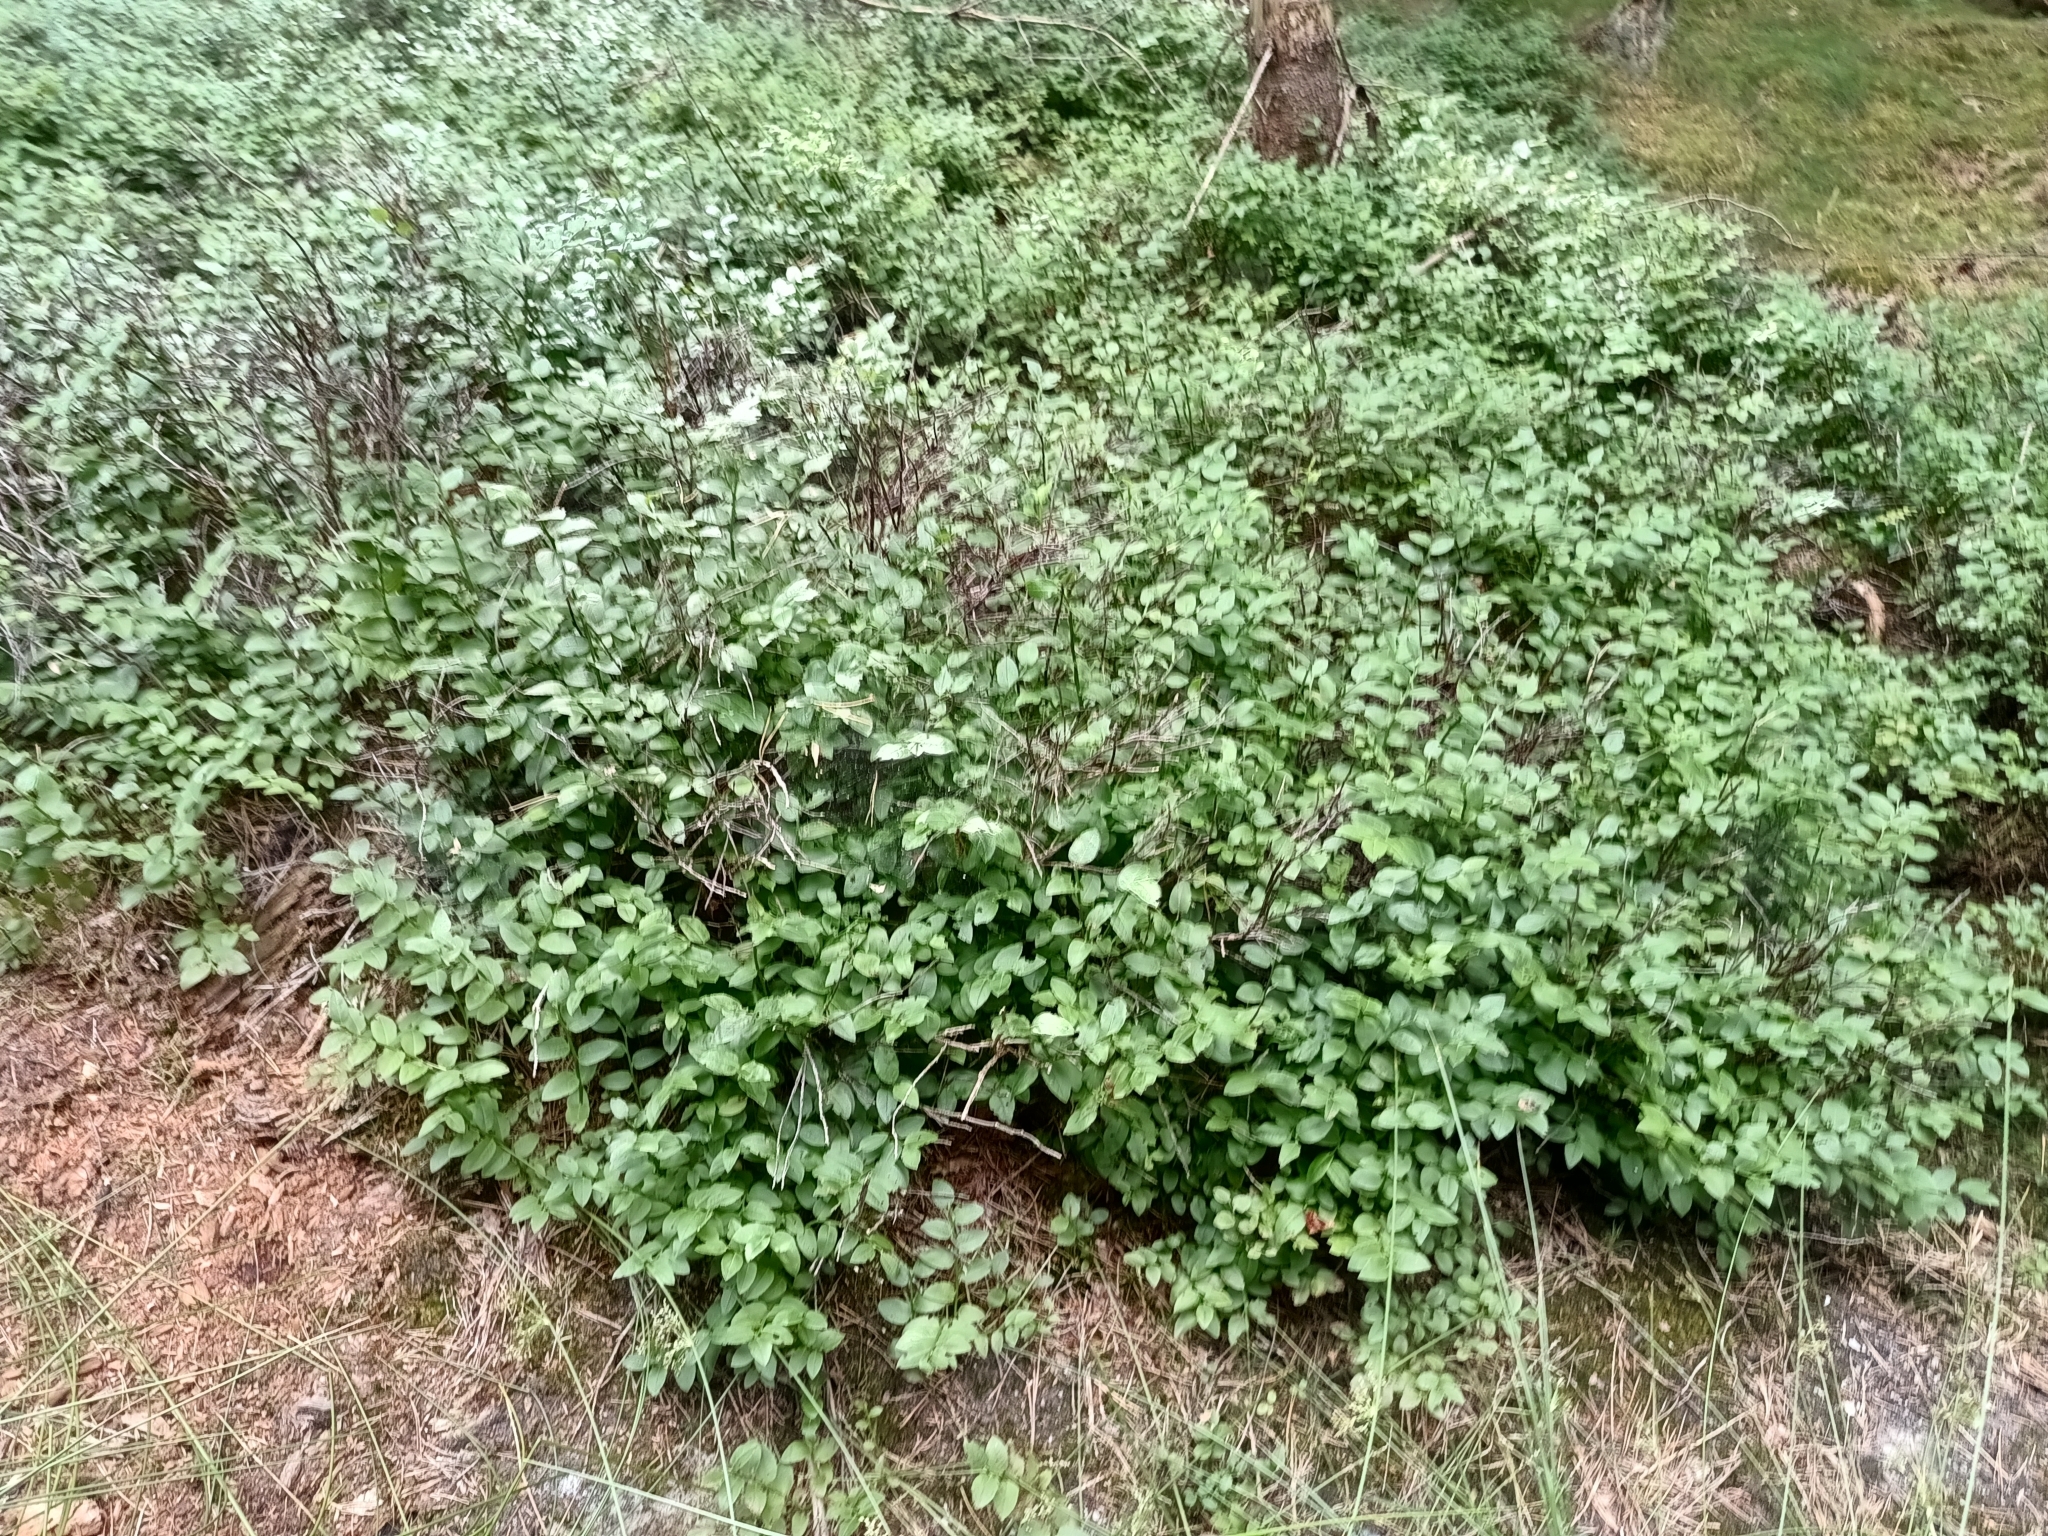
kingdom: Plantae
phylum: Tracheophyta
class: Magnoliopsida
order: Ericales
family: Ericaceae
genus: Vaccinium
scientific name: Vaccinium myrtillus
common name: Bilberry
